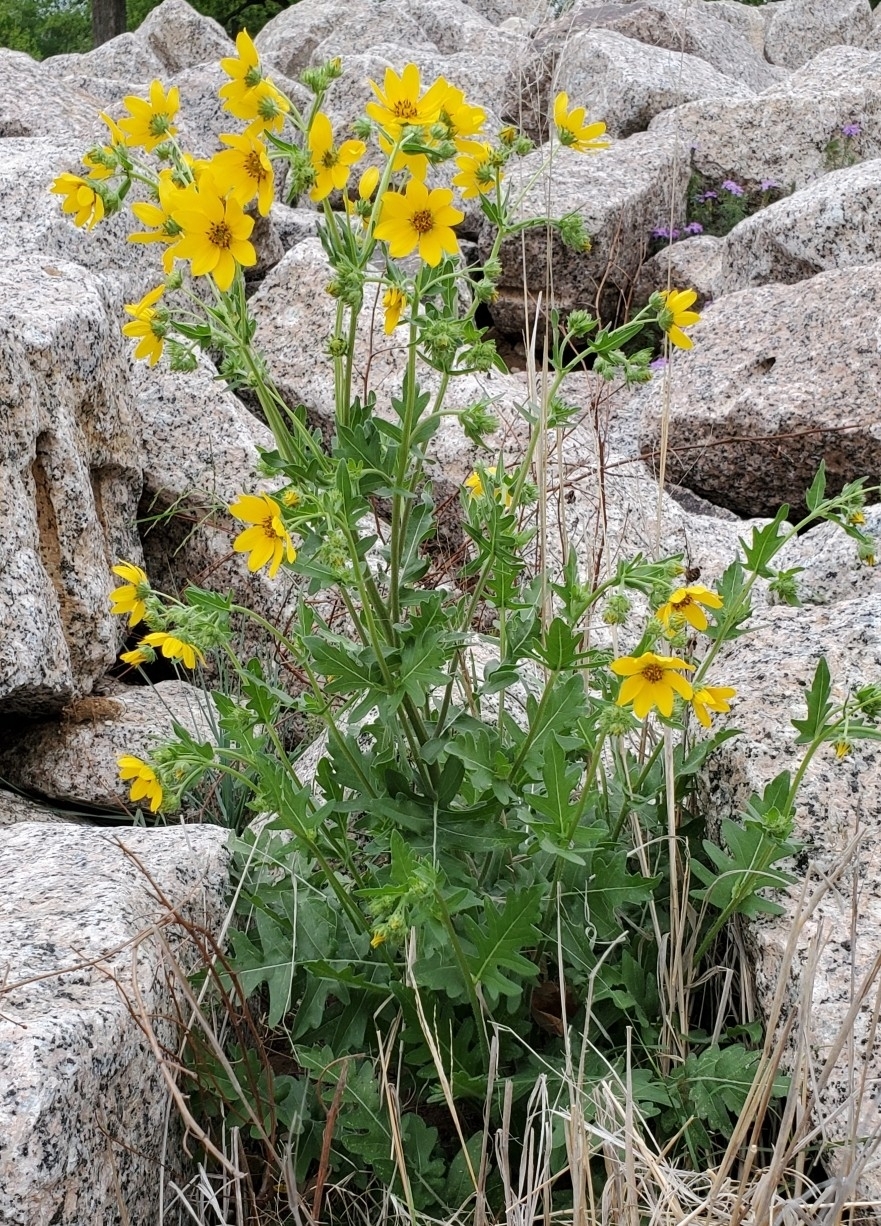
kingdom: Plantae
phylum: Tracheophyta
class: Magnoliopsida
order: Asterales
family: Asteraceae
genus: Engelmannia
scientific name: Engelmannia peristenia
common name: Engelmann's daisy
